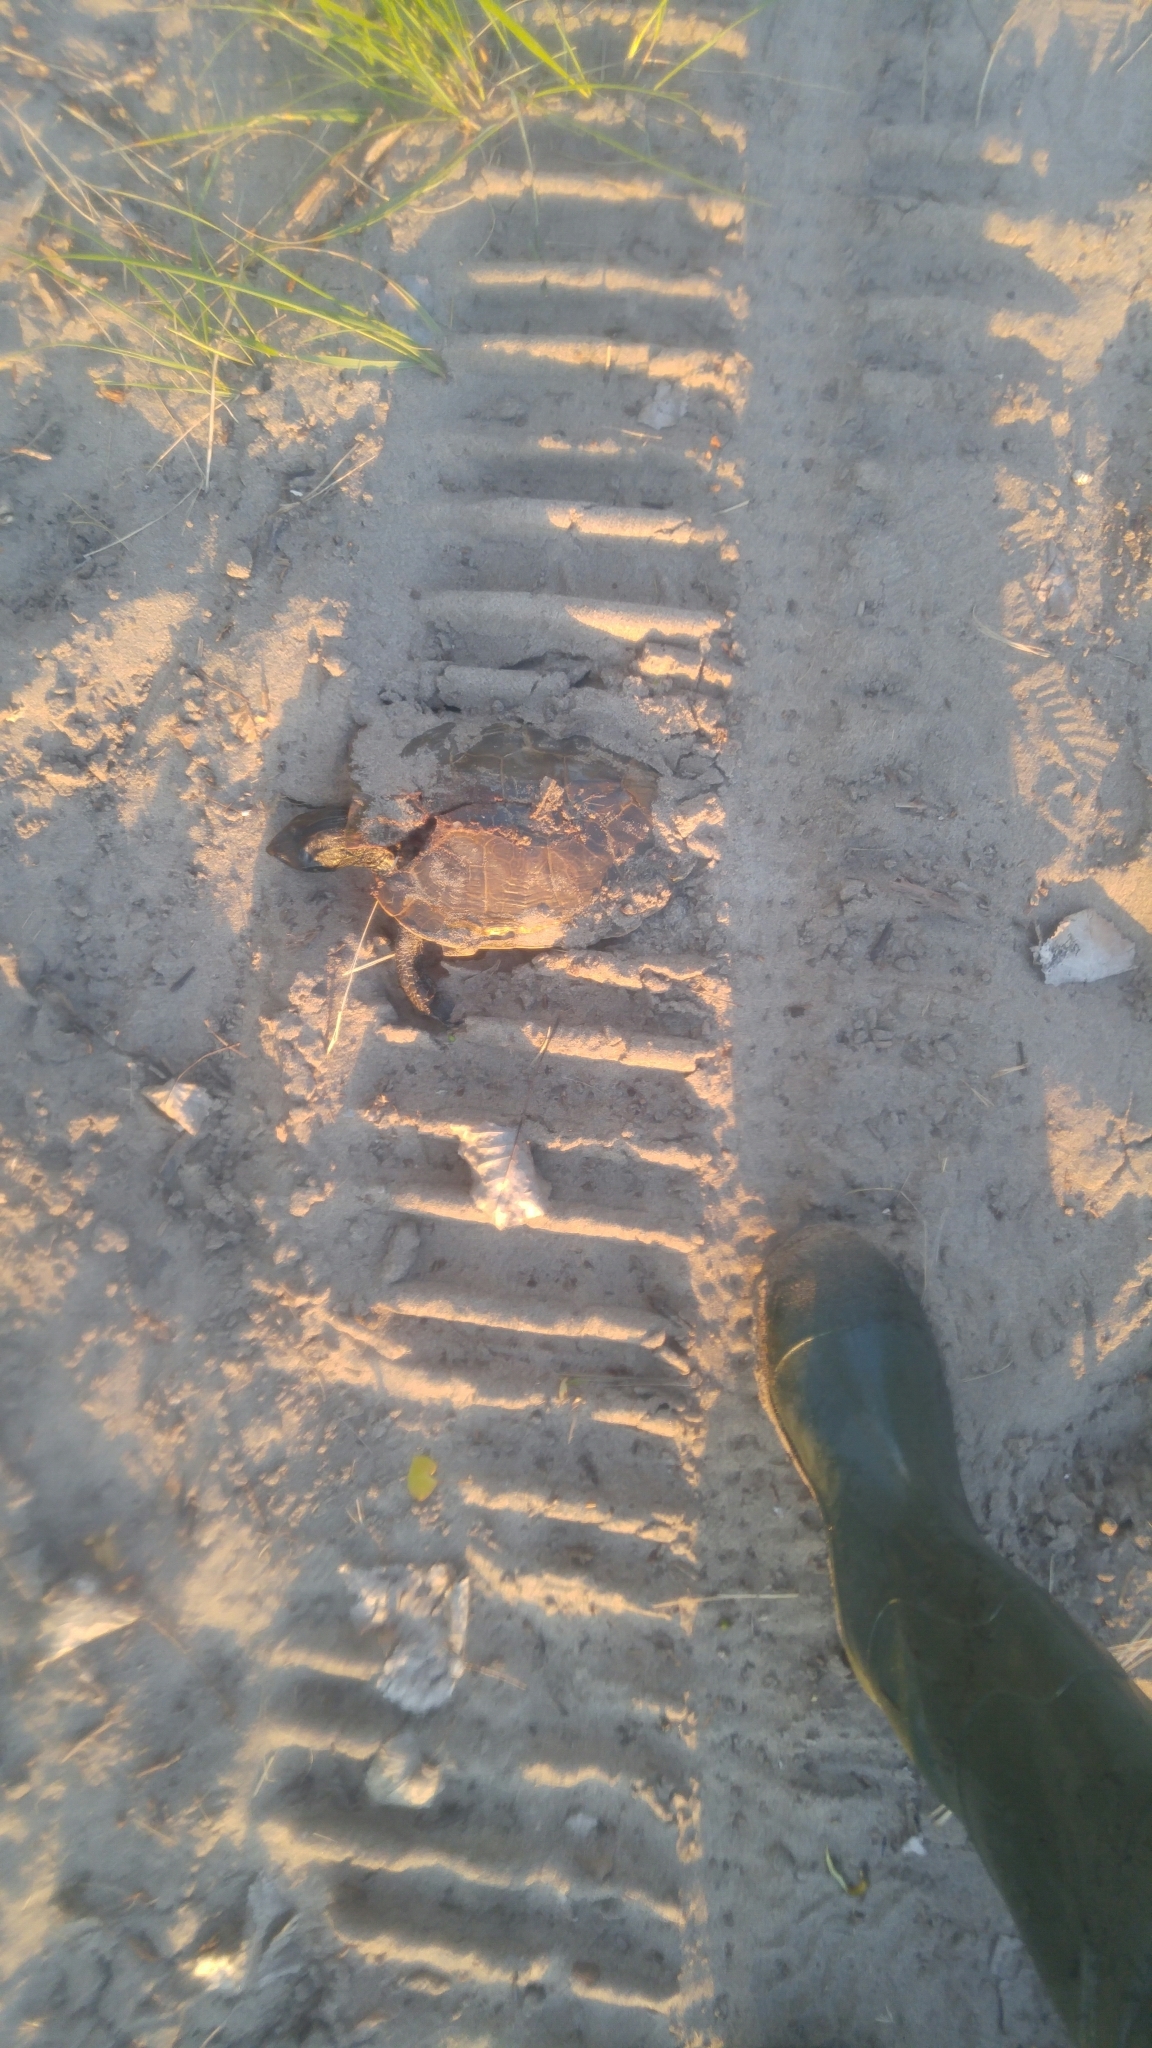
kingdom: Animalia
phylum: Chordata
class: Testudines
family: Emydidae
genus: Graptemys
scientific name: Graptemys geographica
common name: Common map turtle
